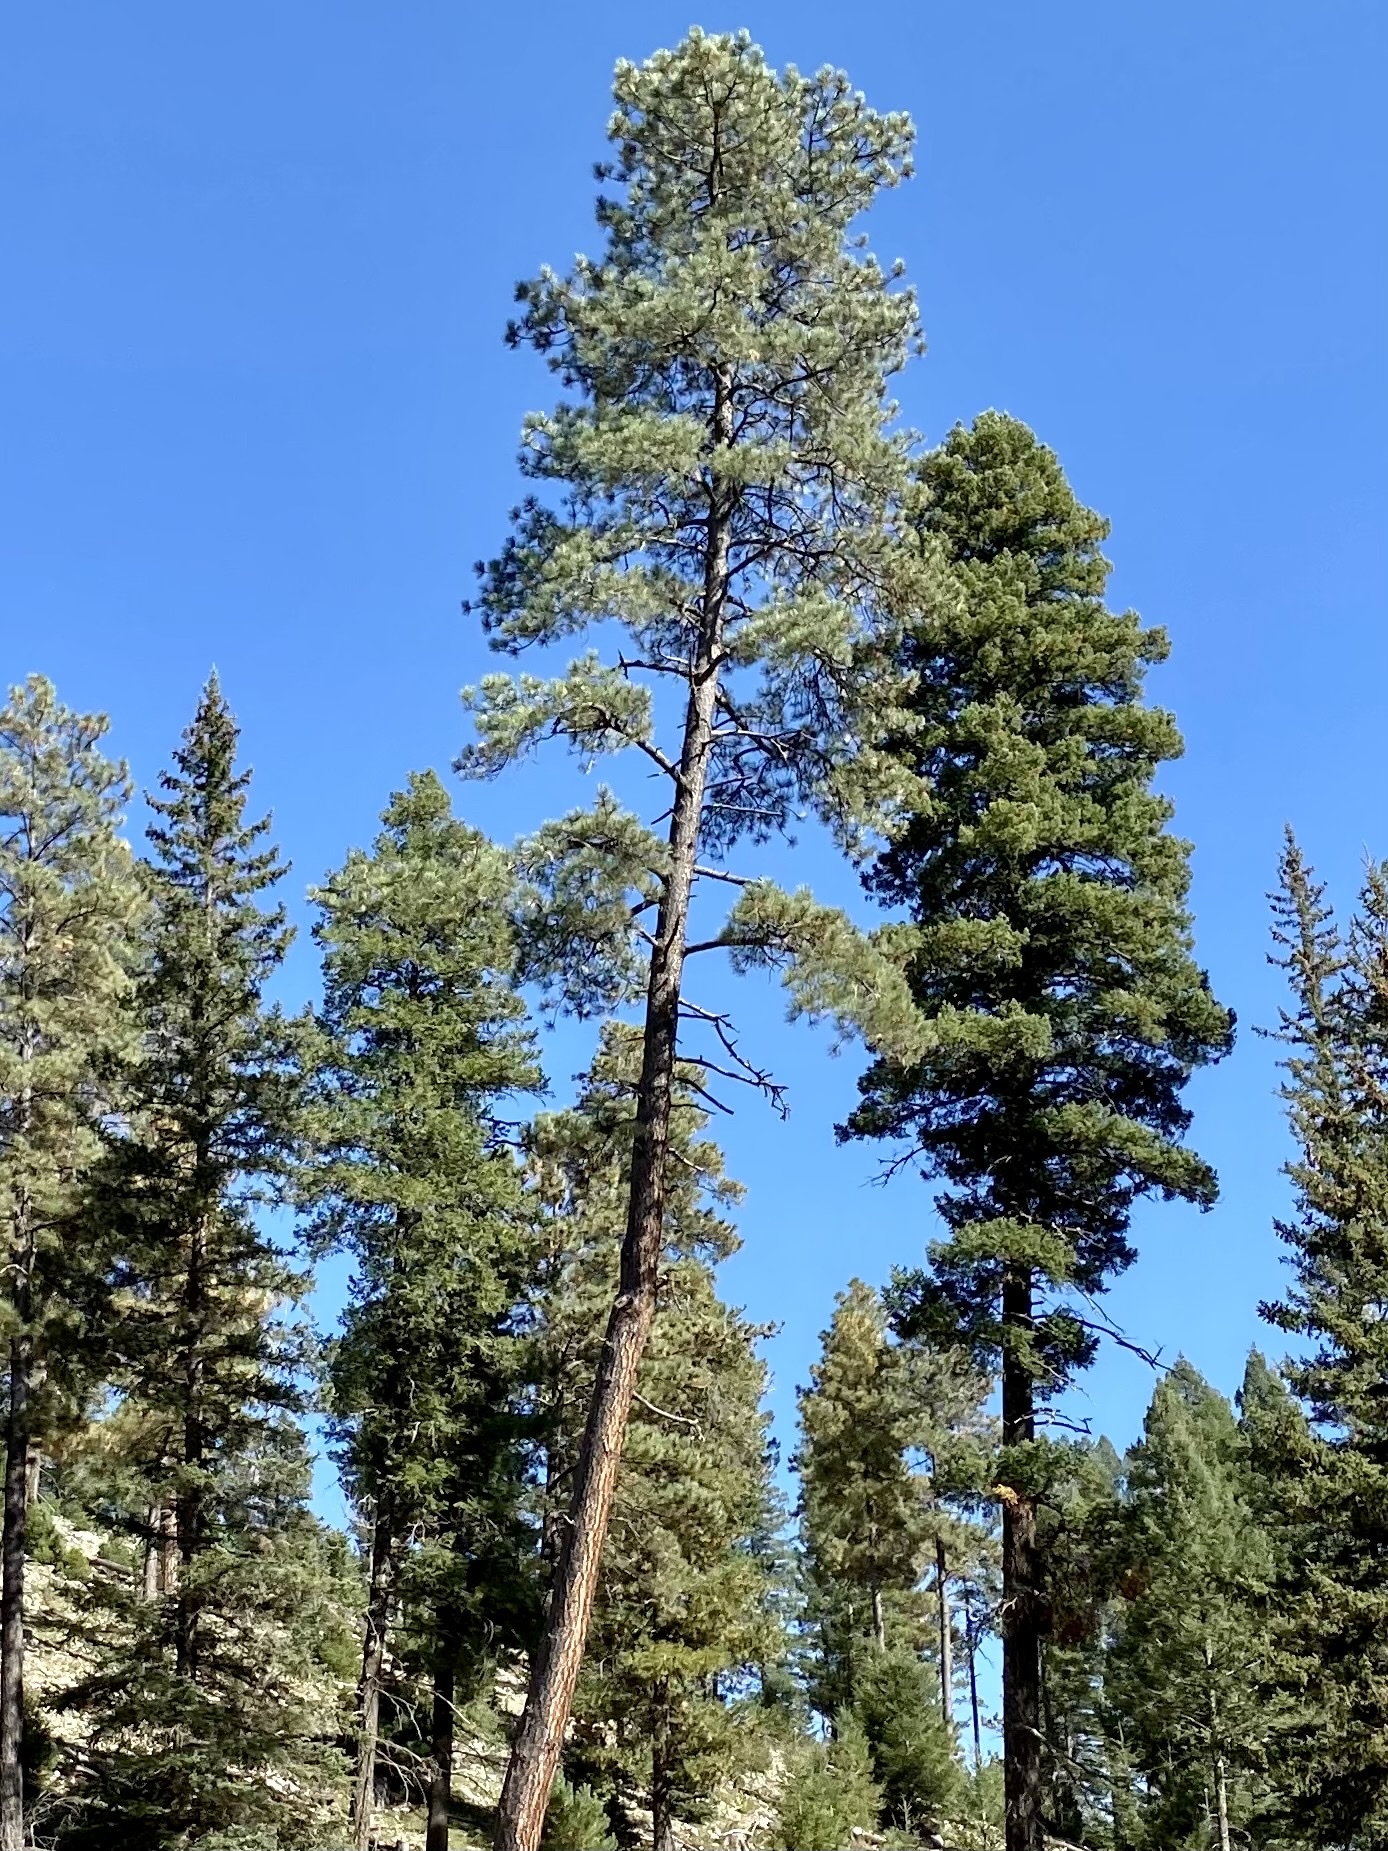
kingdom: Plantae
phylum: Tracheophyta
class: Pinopsida
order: Pinales
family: Pinaceae
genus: Pinus
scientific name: Pinus ponderosa
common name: Western yellow-pine
